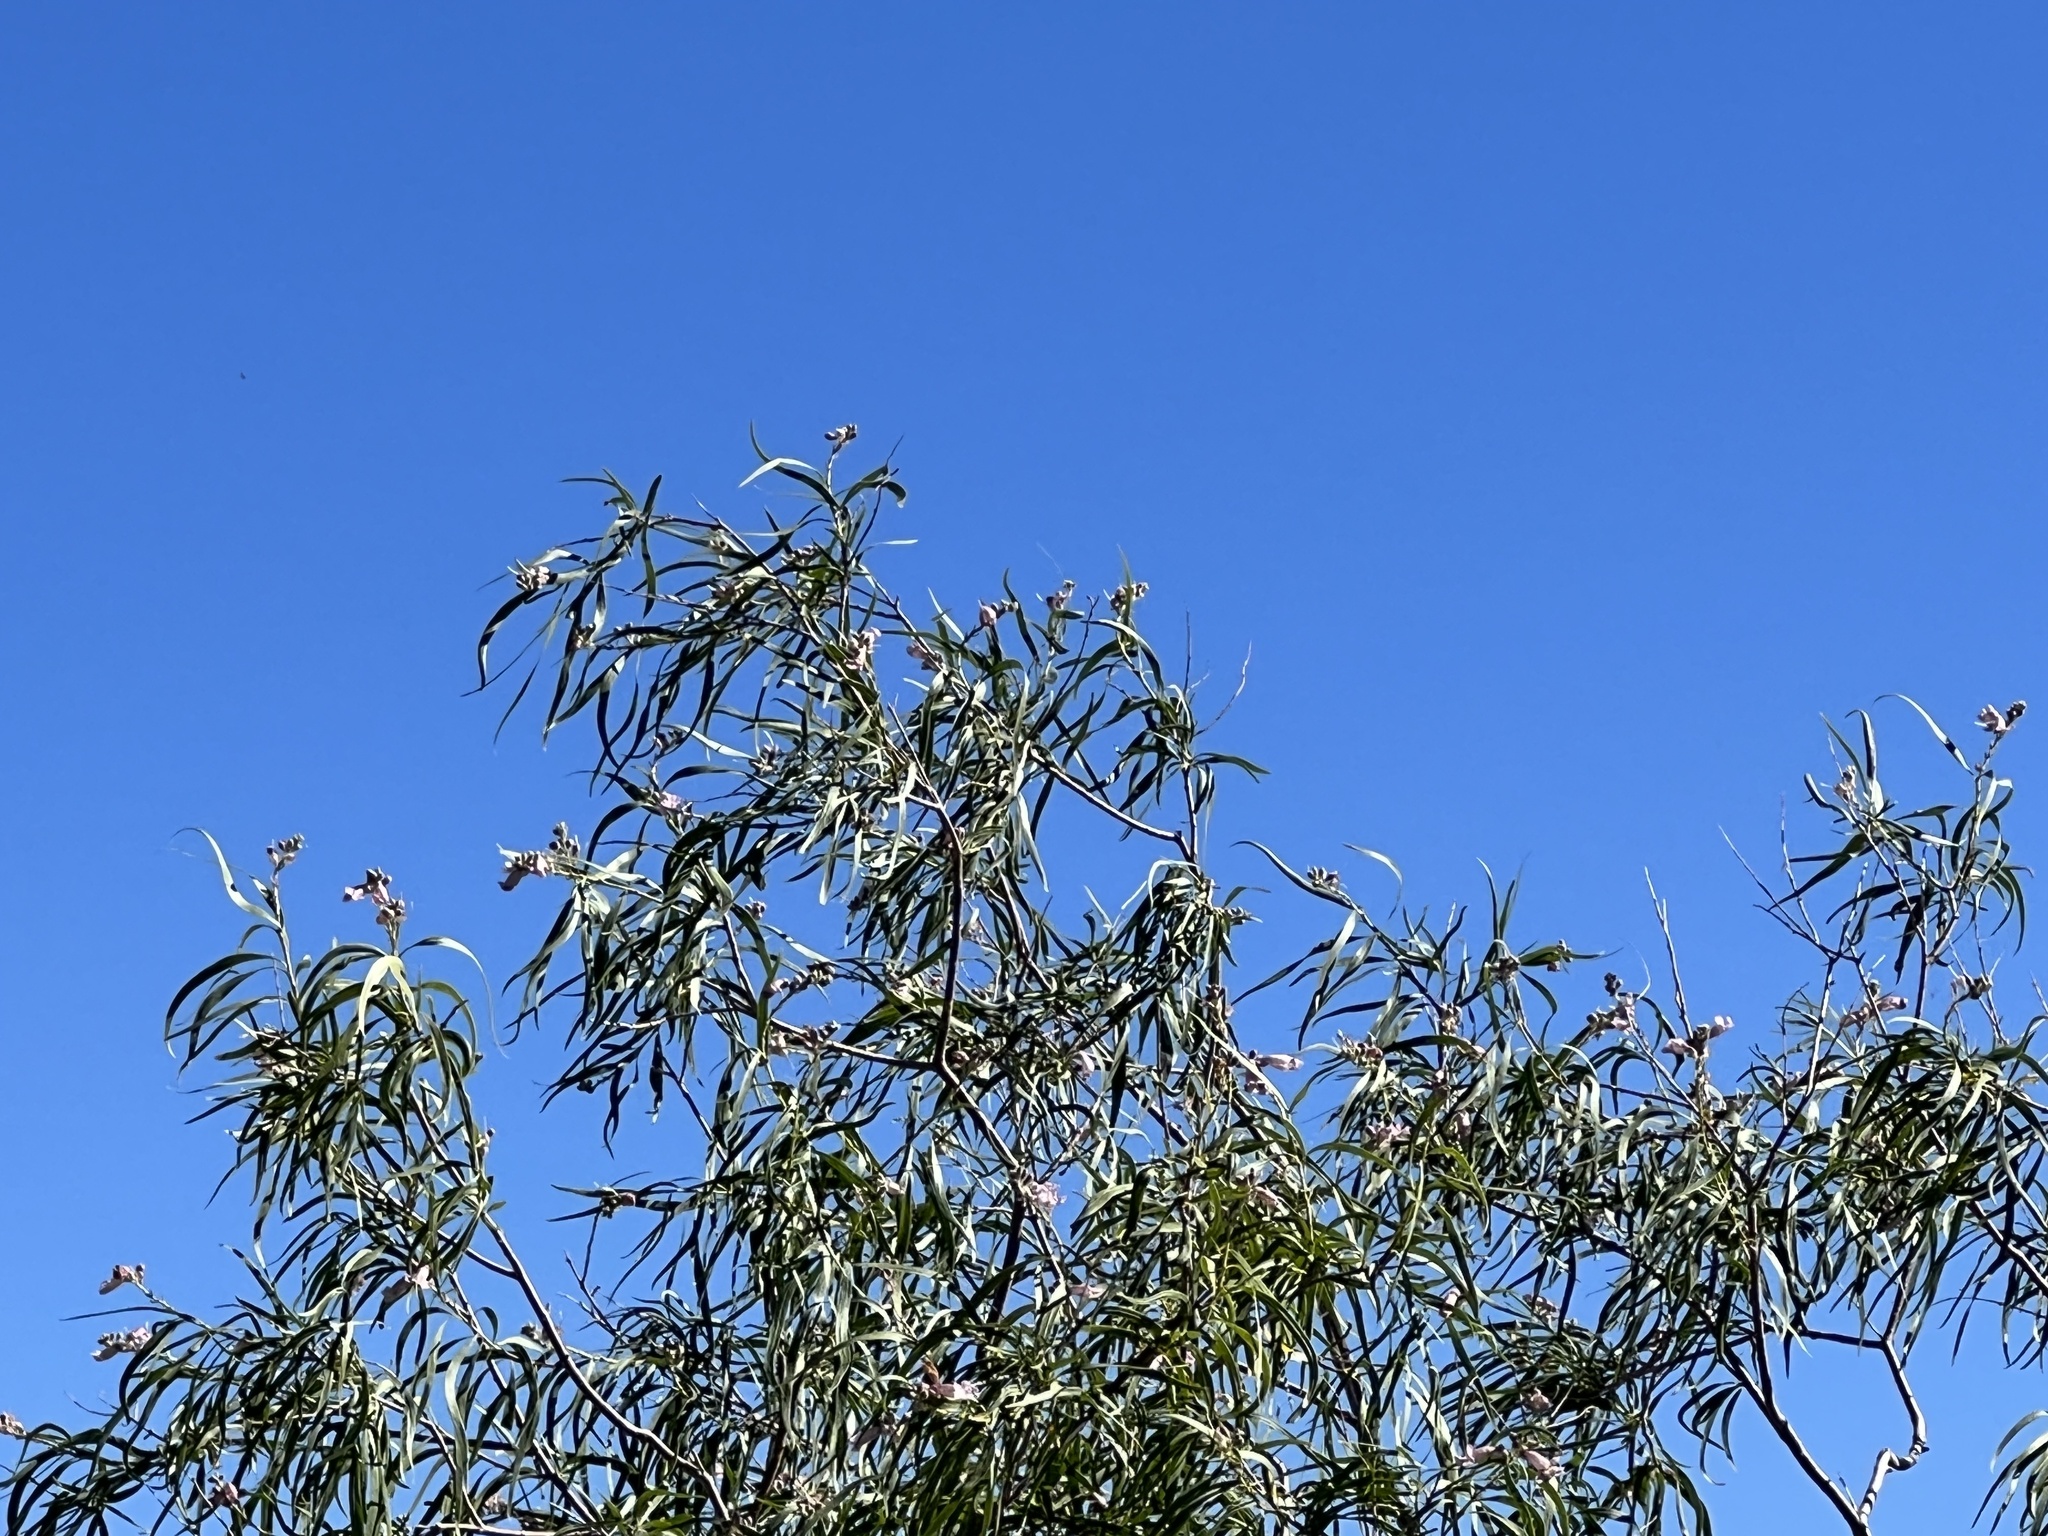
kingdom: Plantae
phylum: Tracheophyta
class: Magnoliopsida
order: Lamiales
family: Bignoniaceae
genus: Chilopsis
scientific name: Chilopsis linearis
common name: Desert-willow
